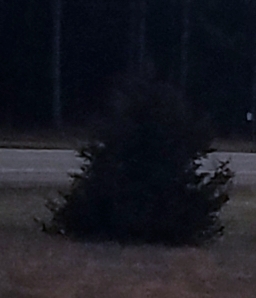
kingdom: Plantae
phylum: Tracheophyta
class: Pinopsida
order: Pinales
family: Cupressaceae
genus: Juniperus
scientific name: Juniperus virginiana
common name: Red juniper
